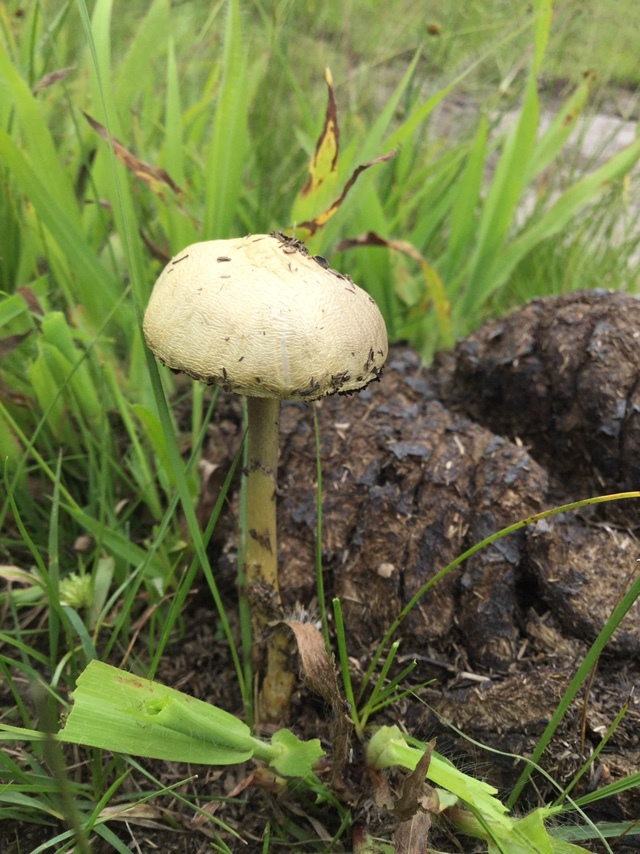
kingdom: Fungi
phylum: Basidiomycota
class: Agaricomycetes
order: Agaricales
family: Strophariaceae
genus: Protostropharia
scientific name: Protostropharia semiglobata
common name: Dung roundhead
